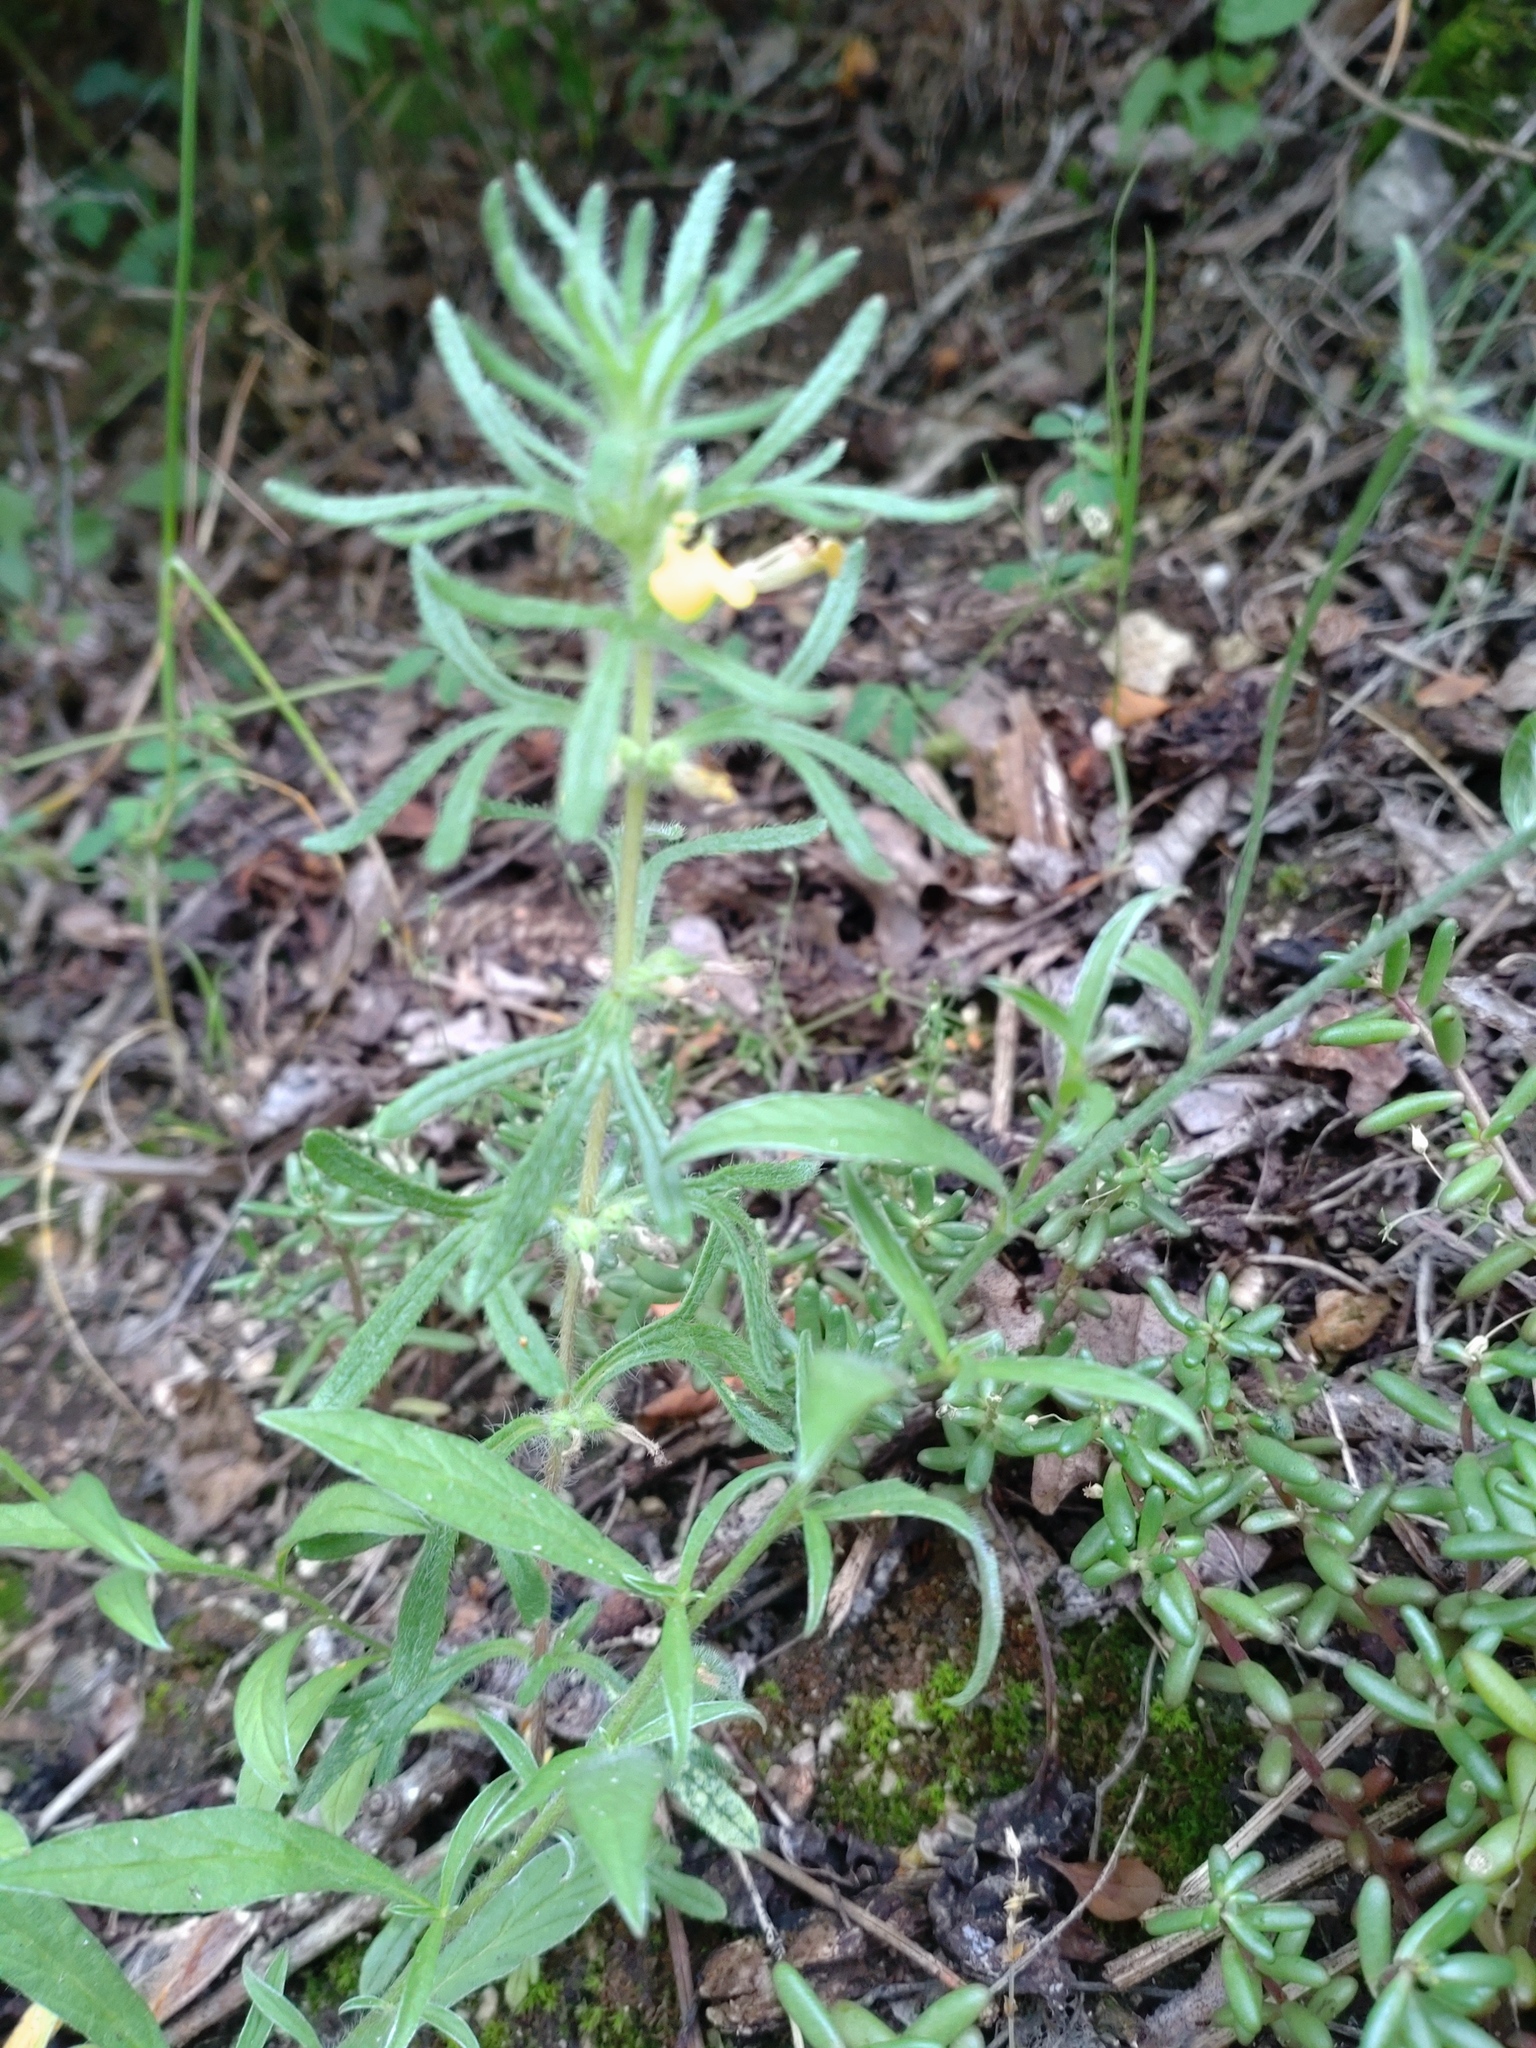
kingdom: Plantae
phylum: Tracheophyta
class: Magnoliopsida
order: Lamiales
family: Lamiaceae
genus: Ajuga
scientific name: Ajuga chamaepitys
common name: Ground-pine
